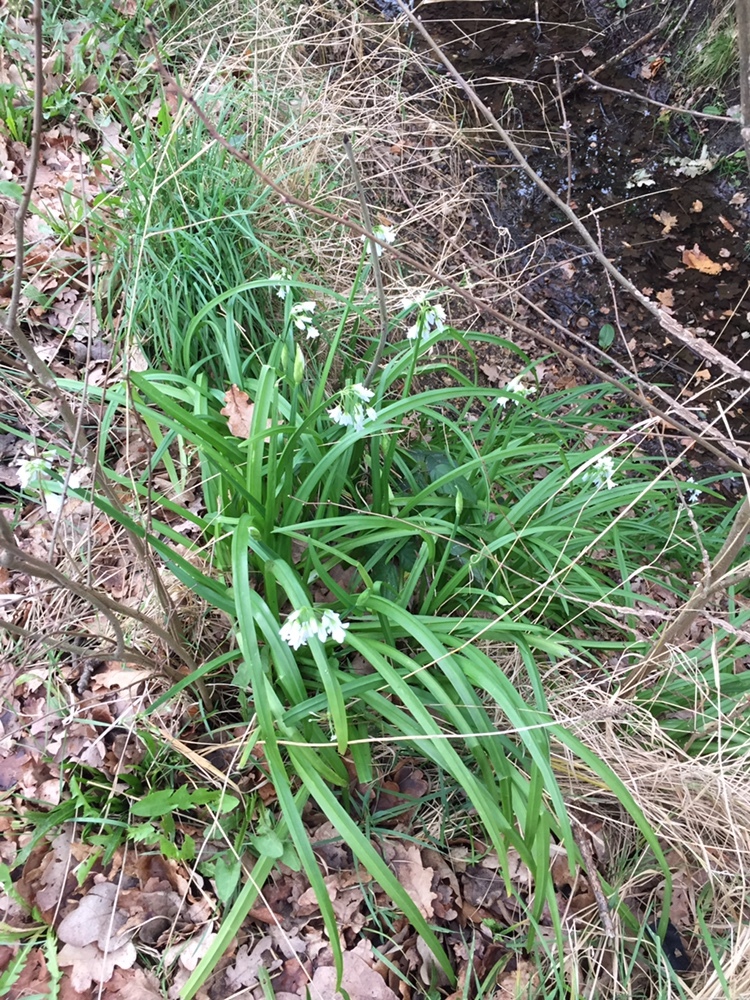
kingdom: Plantae
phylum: Tracheophyta
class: Liliopsida
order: Asparagales
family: Amaryllidaceae
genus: Allium
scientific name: Allium triquetrum
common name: Three-cornered garlic
